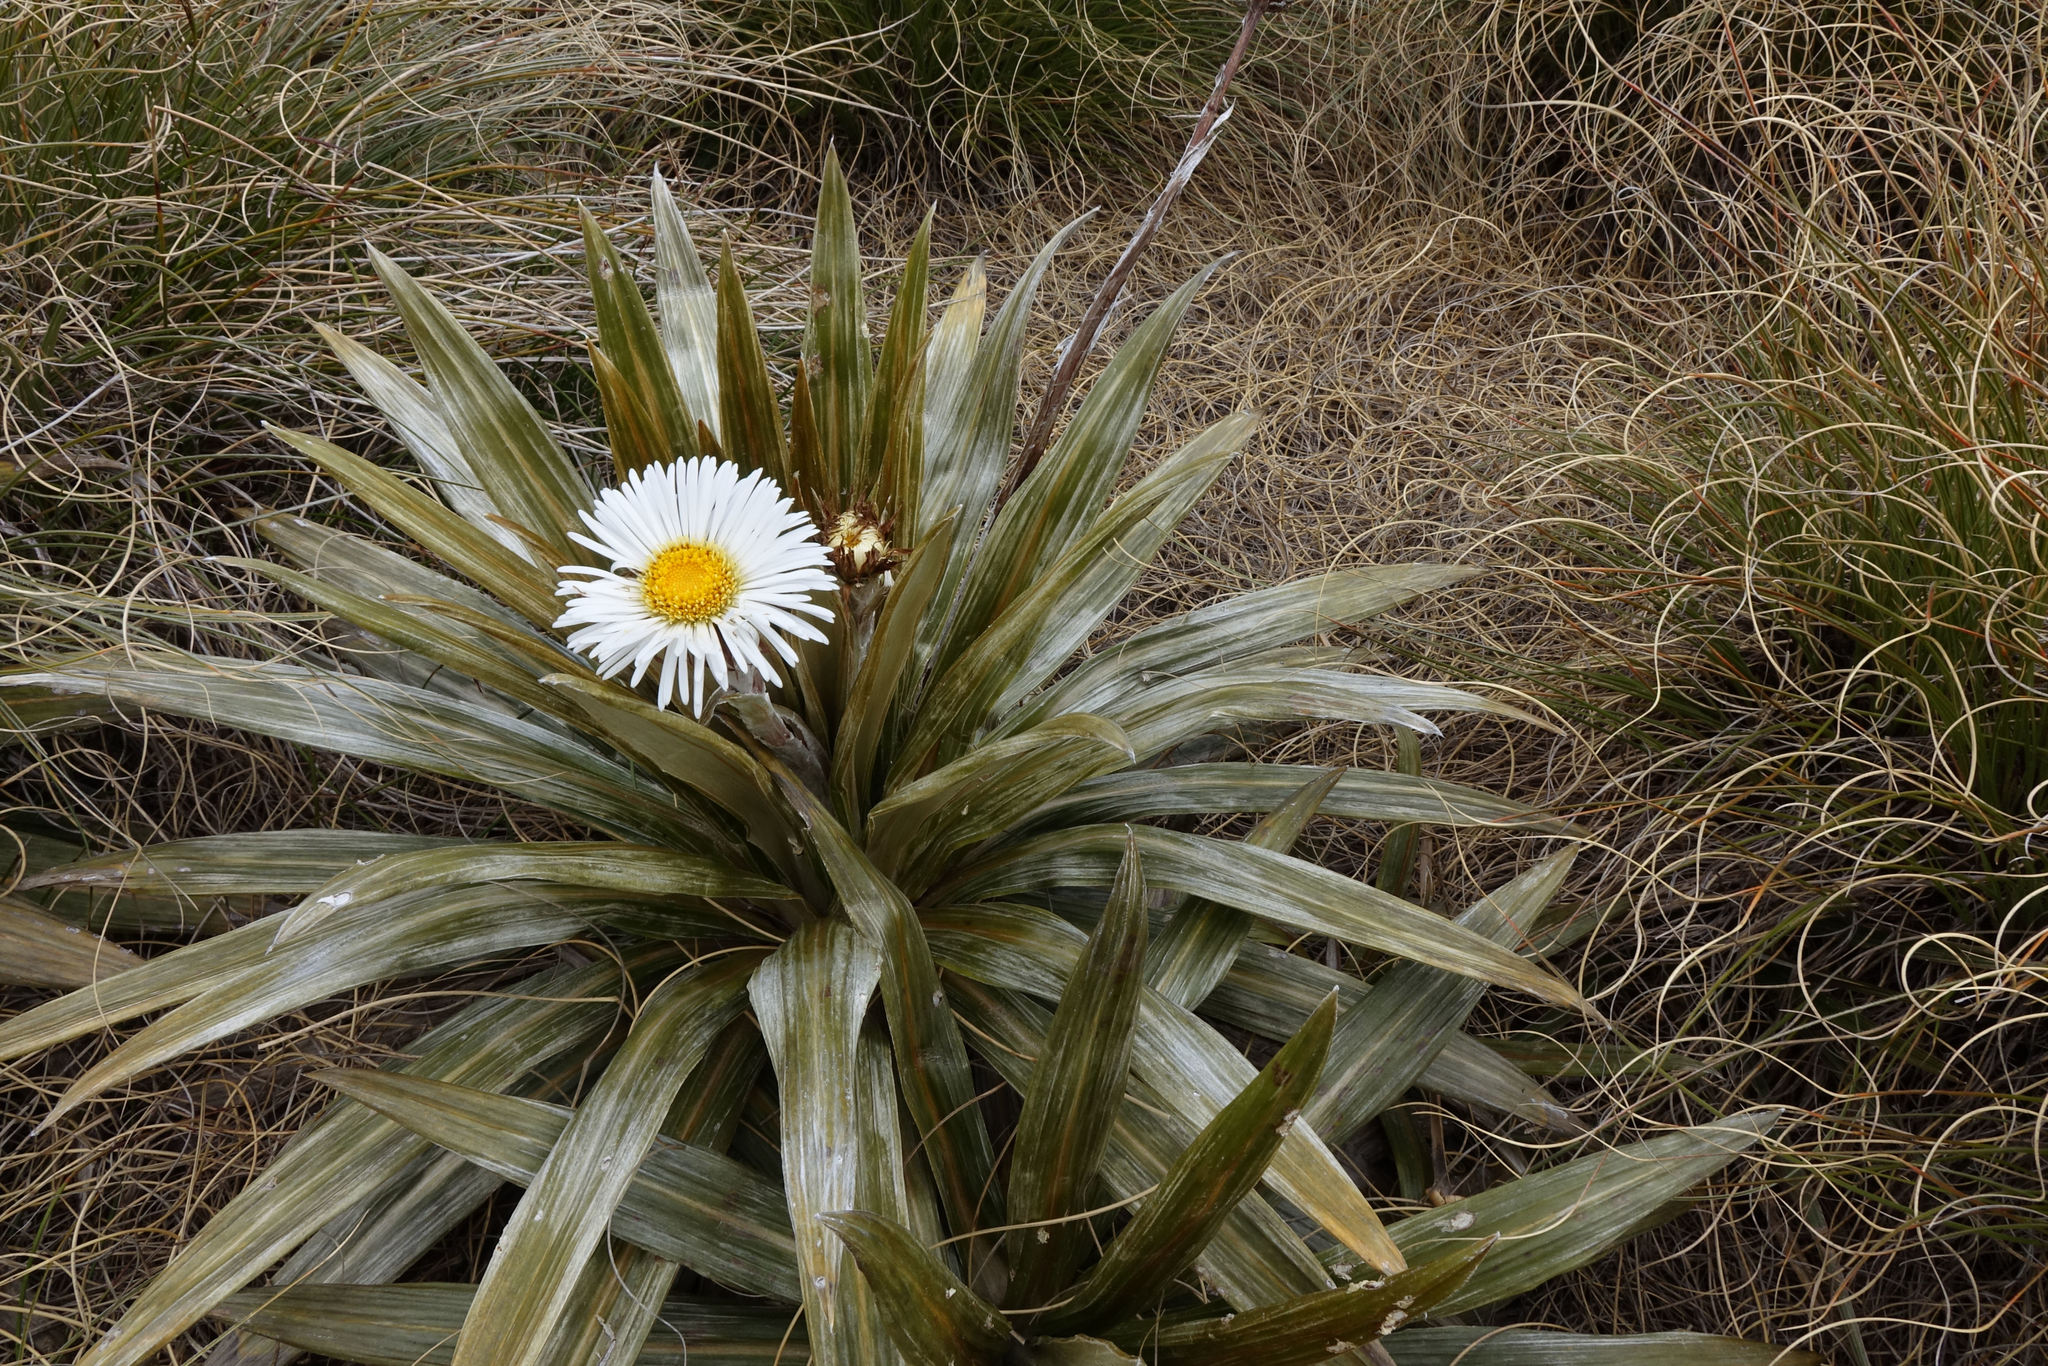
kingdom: Plantae
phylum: Tracheophyta
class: Magnoliopsida
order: Asterales
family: Asteraceae
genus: Celmisia
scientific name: Celmisia coriacea
